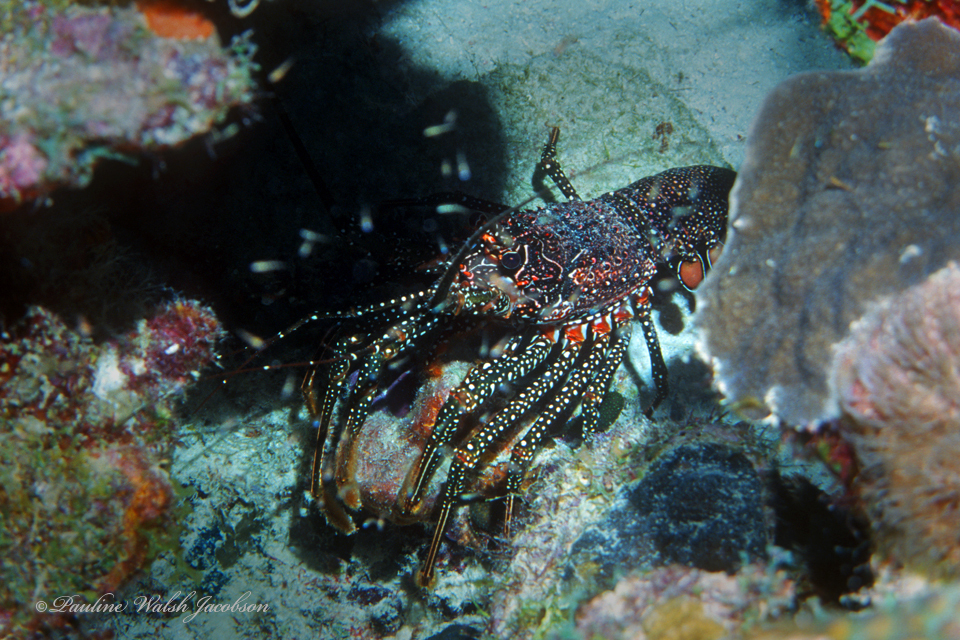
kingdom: Animalia
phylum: Arthropoda
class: Malacostraca
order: Decapoda
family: Palinuridae
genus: Panulirus
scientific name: Panulirus guttatus
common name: Spotted spiny lobster
